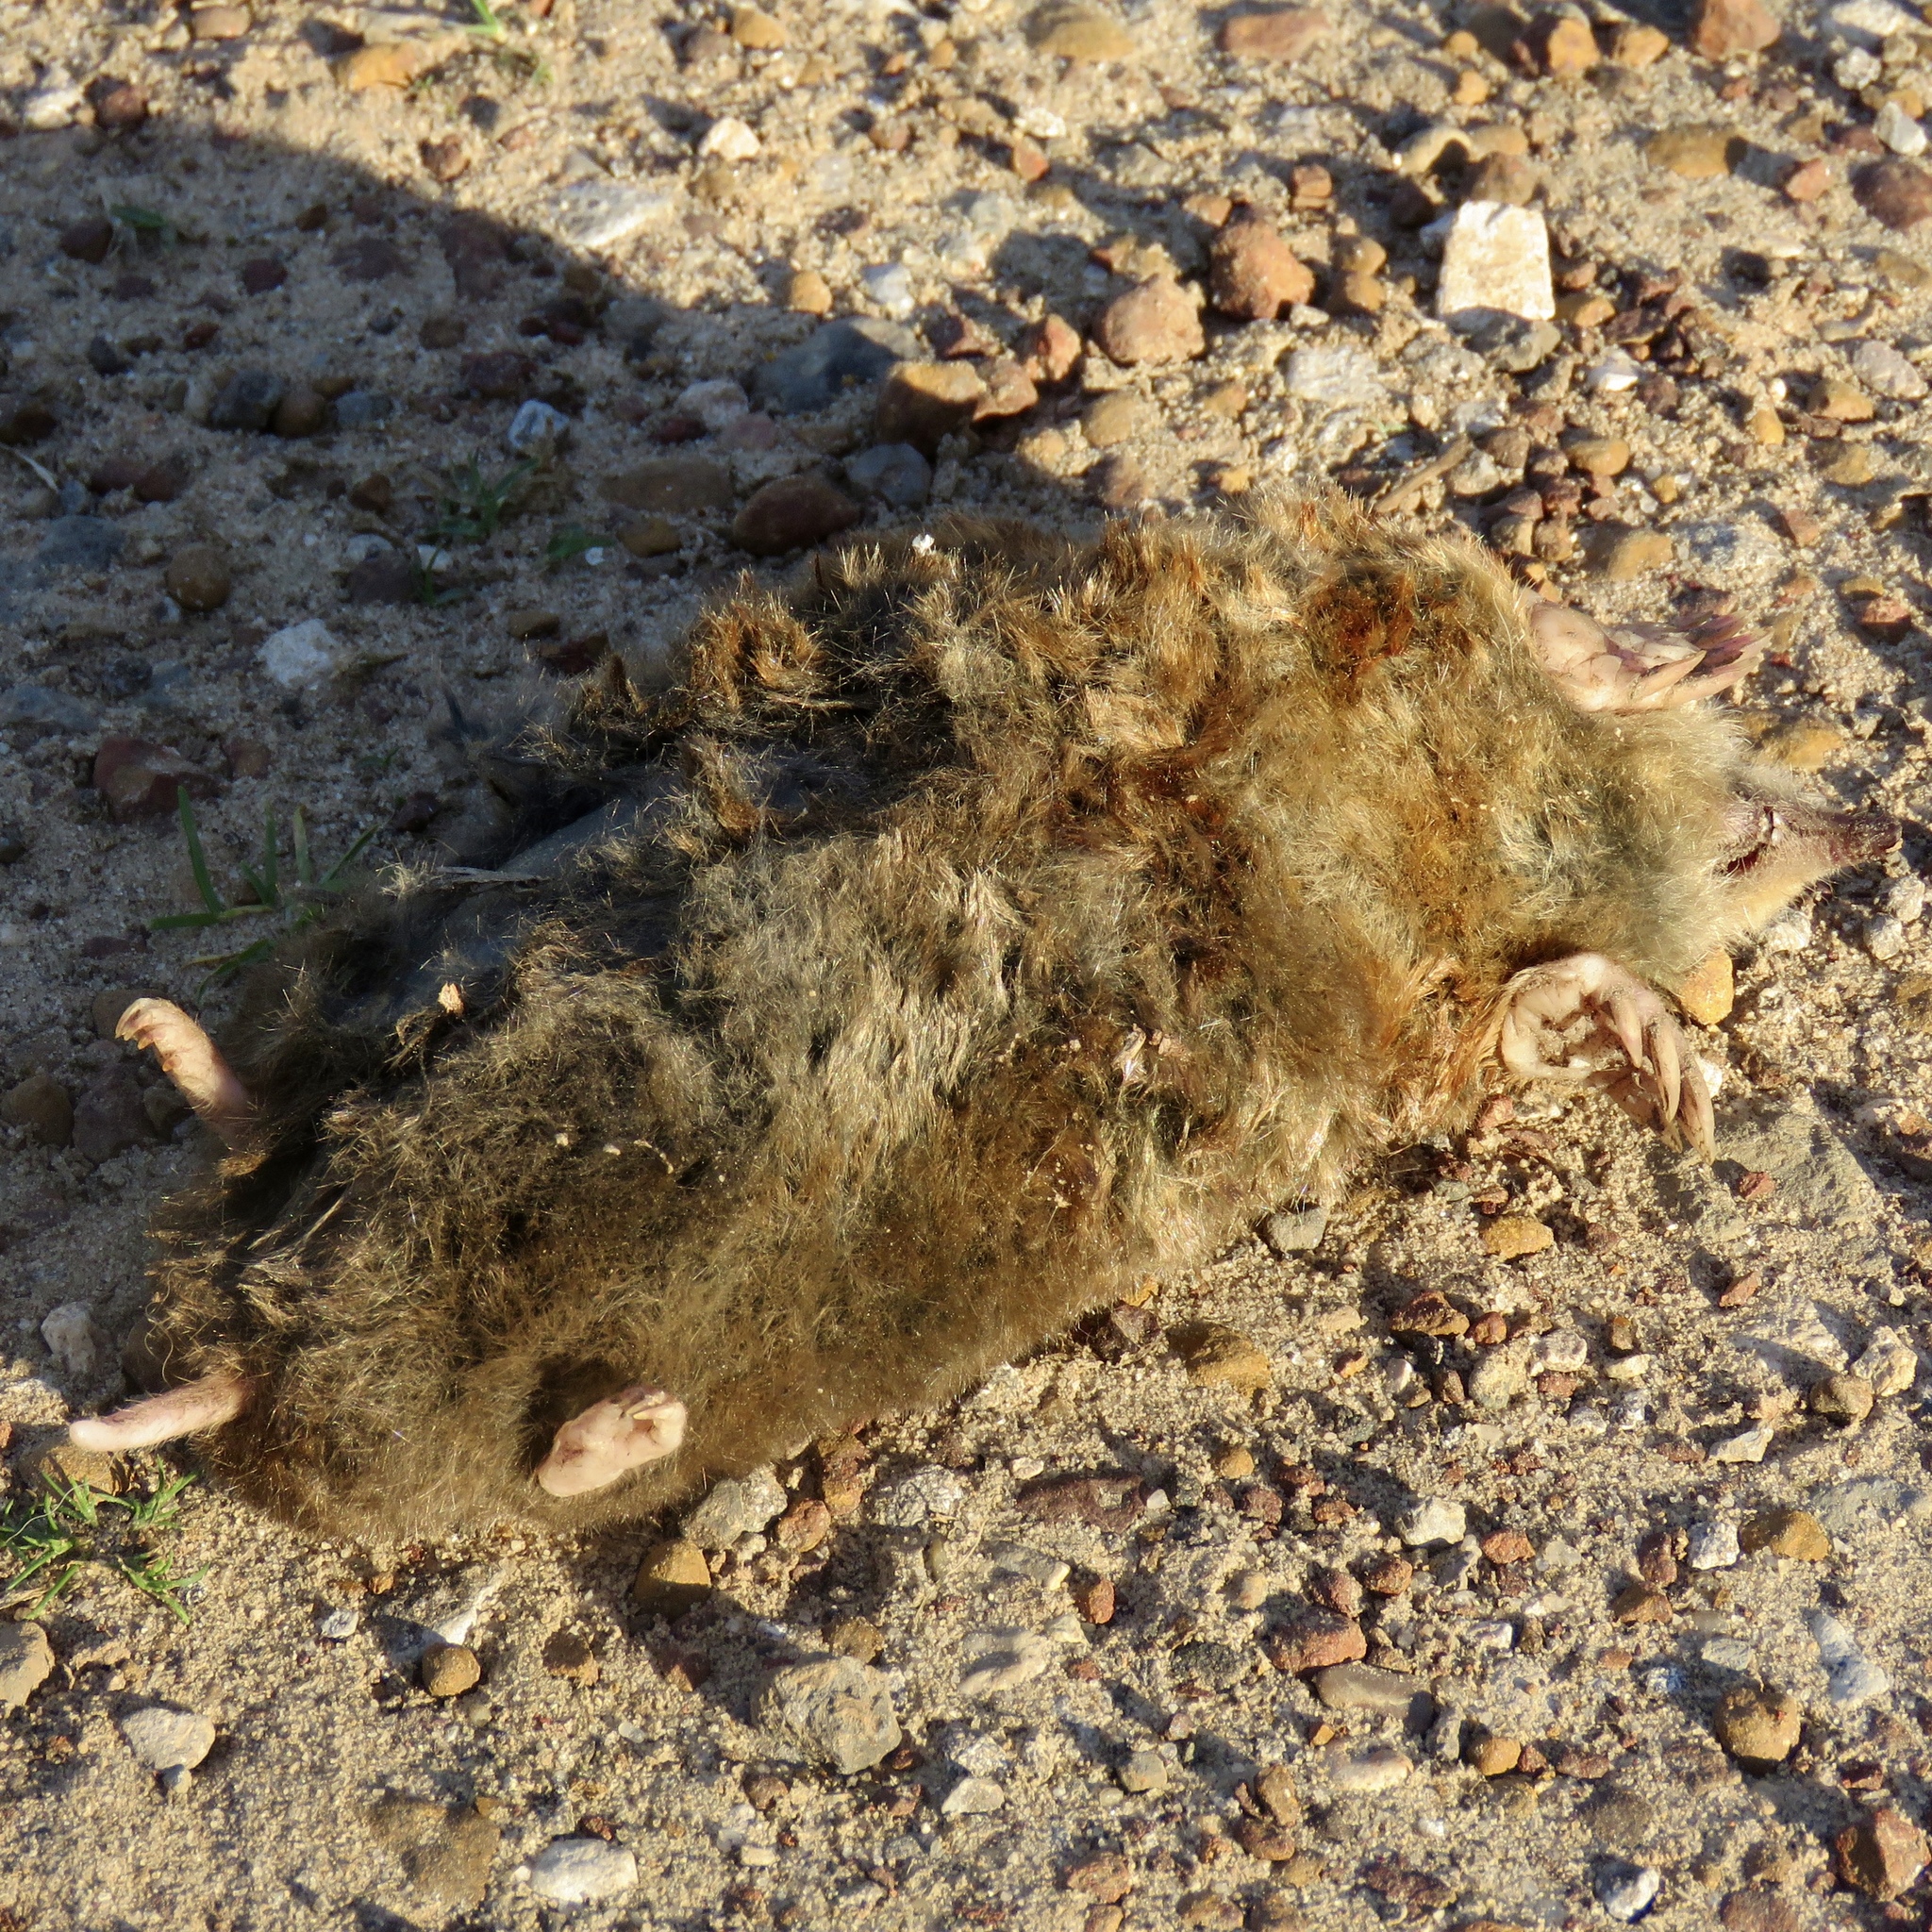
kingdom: Animalia
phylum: Chordata
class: Mammalia
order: Soricomorpha
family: Talpidae
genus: Scalopus
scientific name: Scalopus aquaticus
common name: Eastern mole
